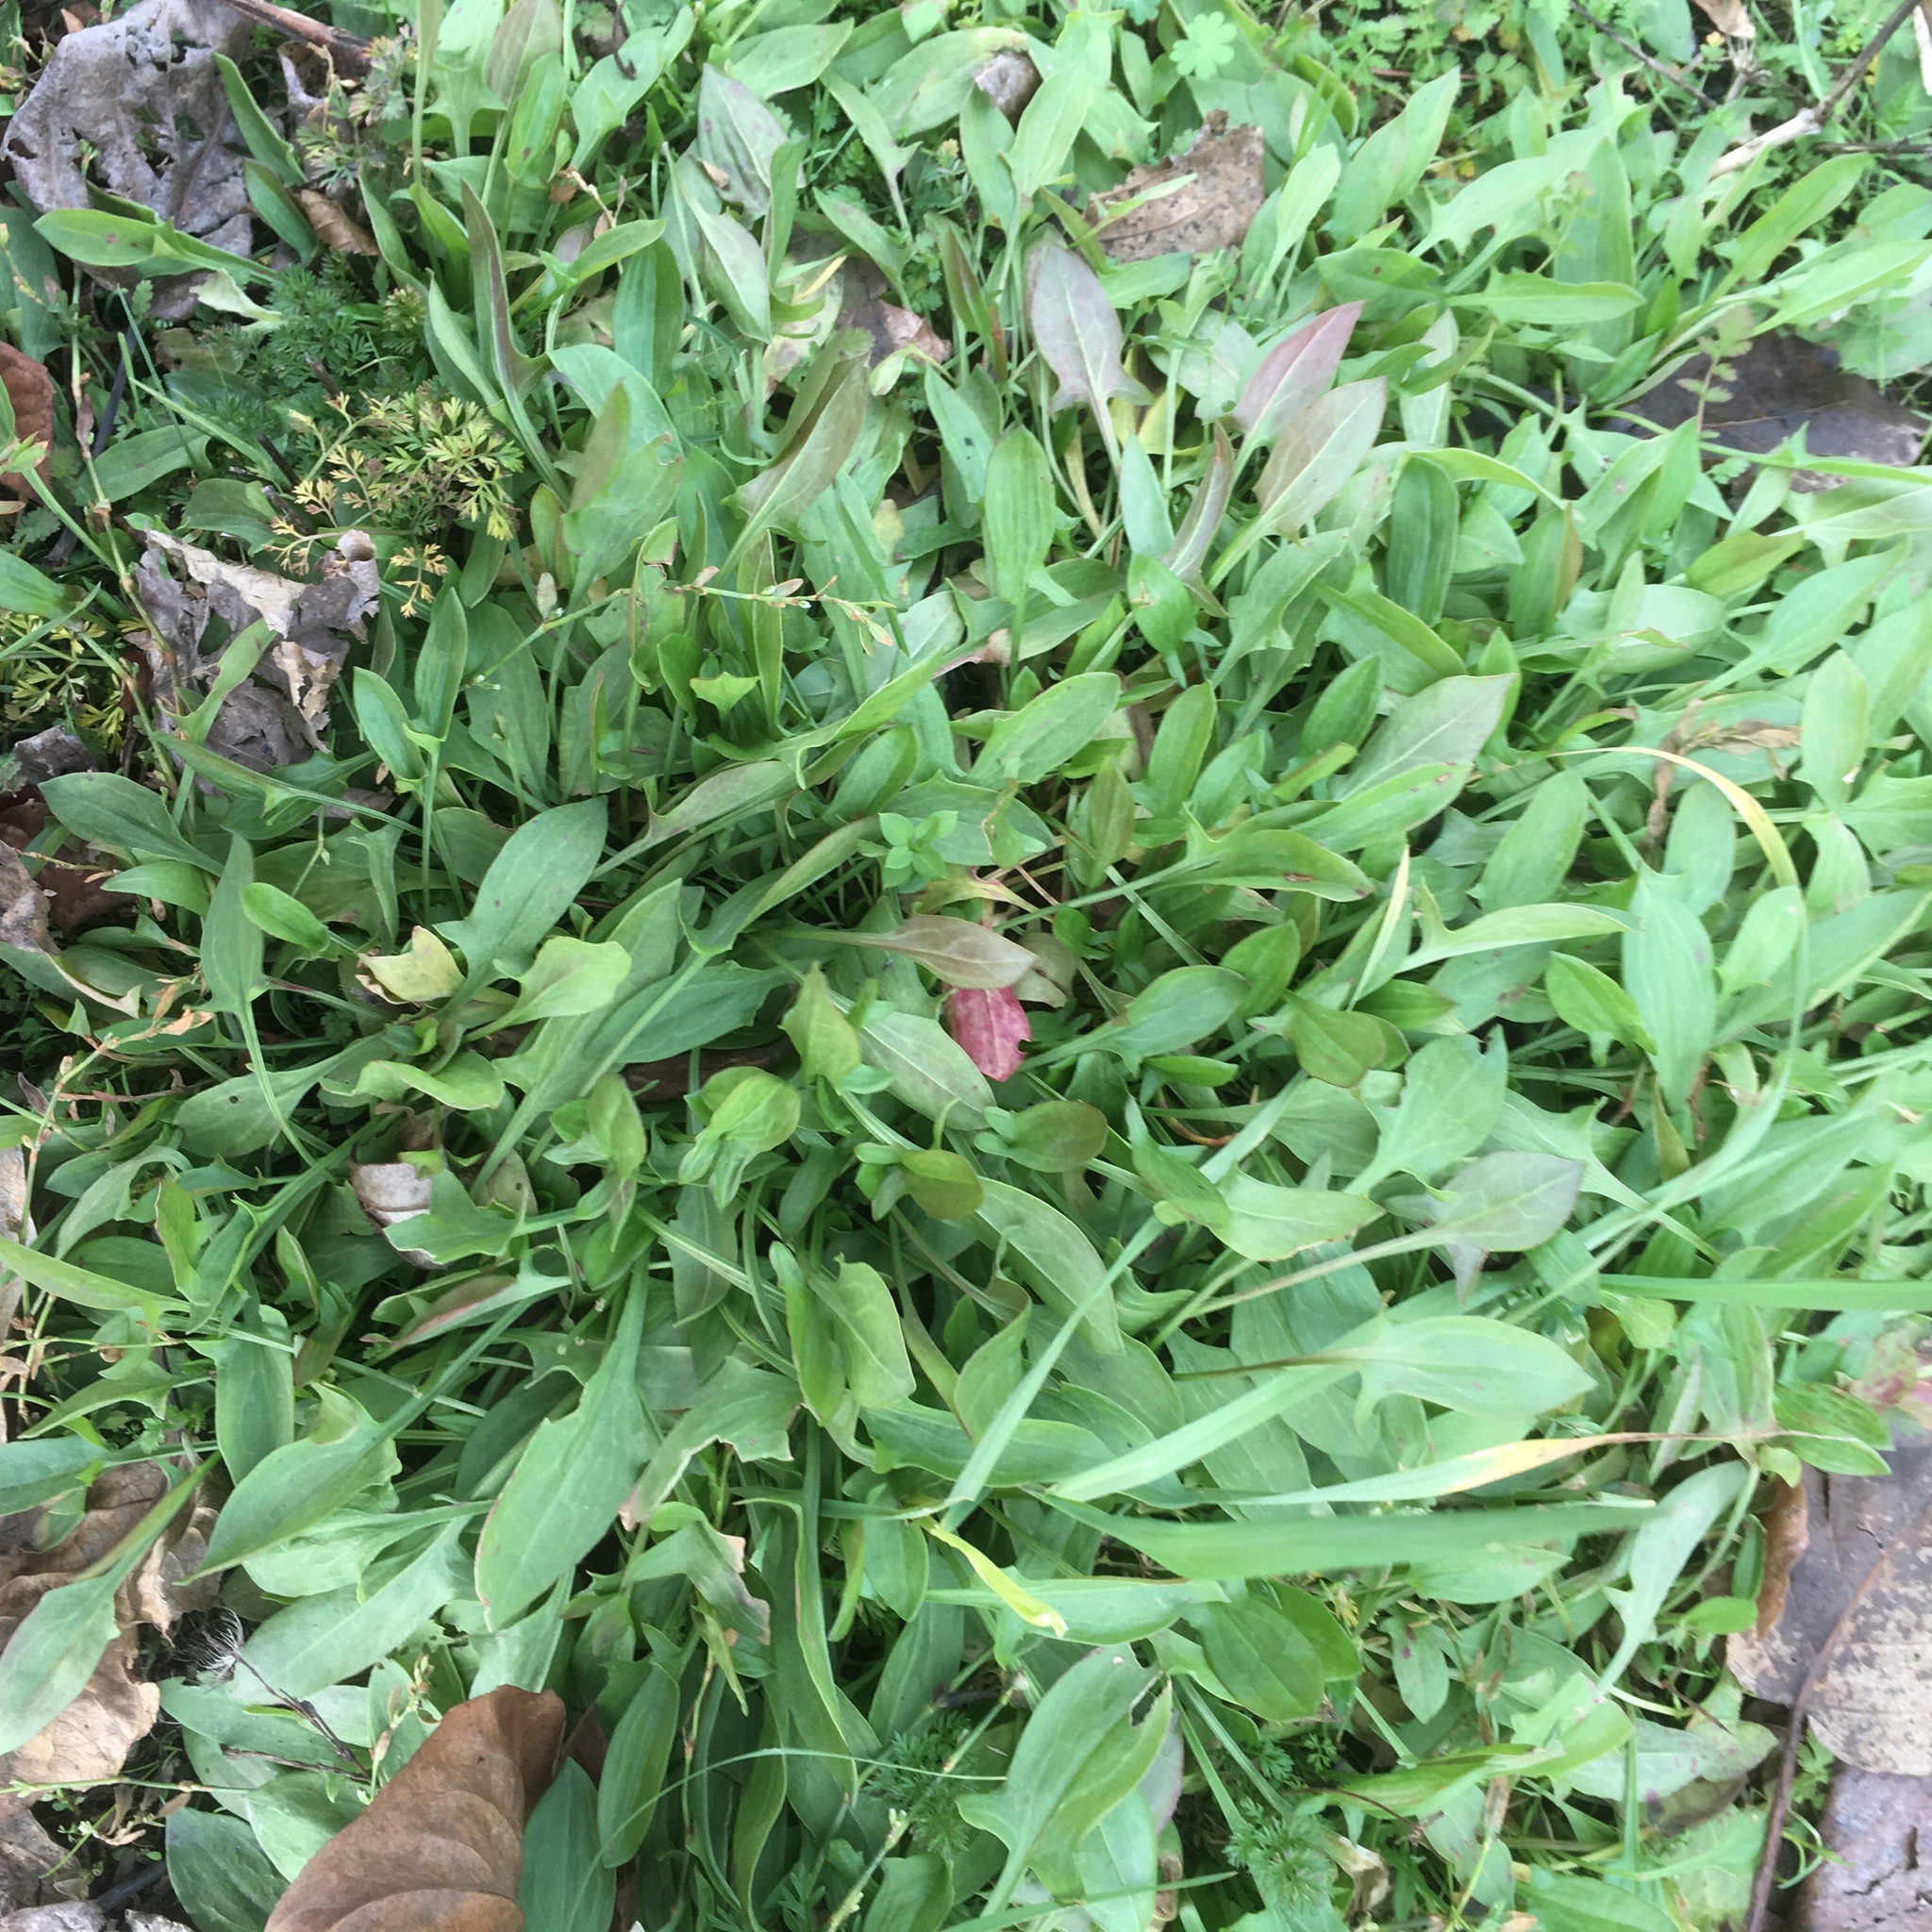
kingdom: Plantae
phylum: Tracheophyta
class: Magnoliopsida
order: Caryophyllales
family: Polygonaceae
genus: Rumex
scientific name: Rumex acetosella
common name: Common sheep sorrel
